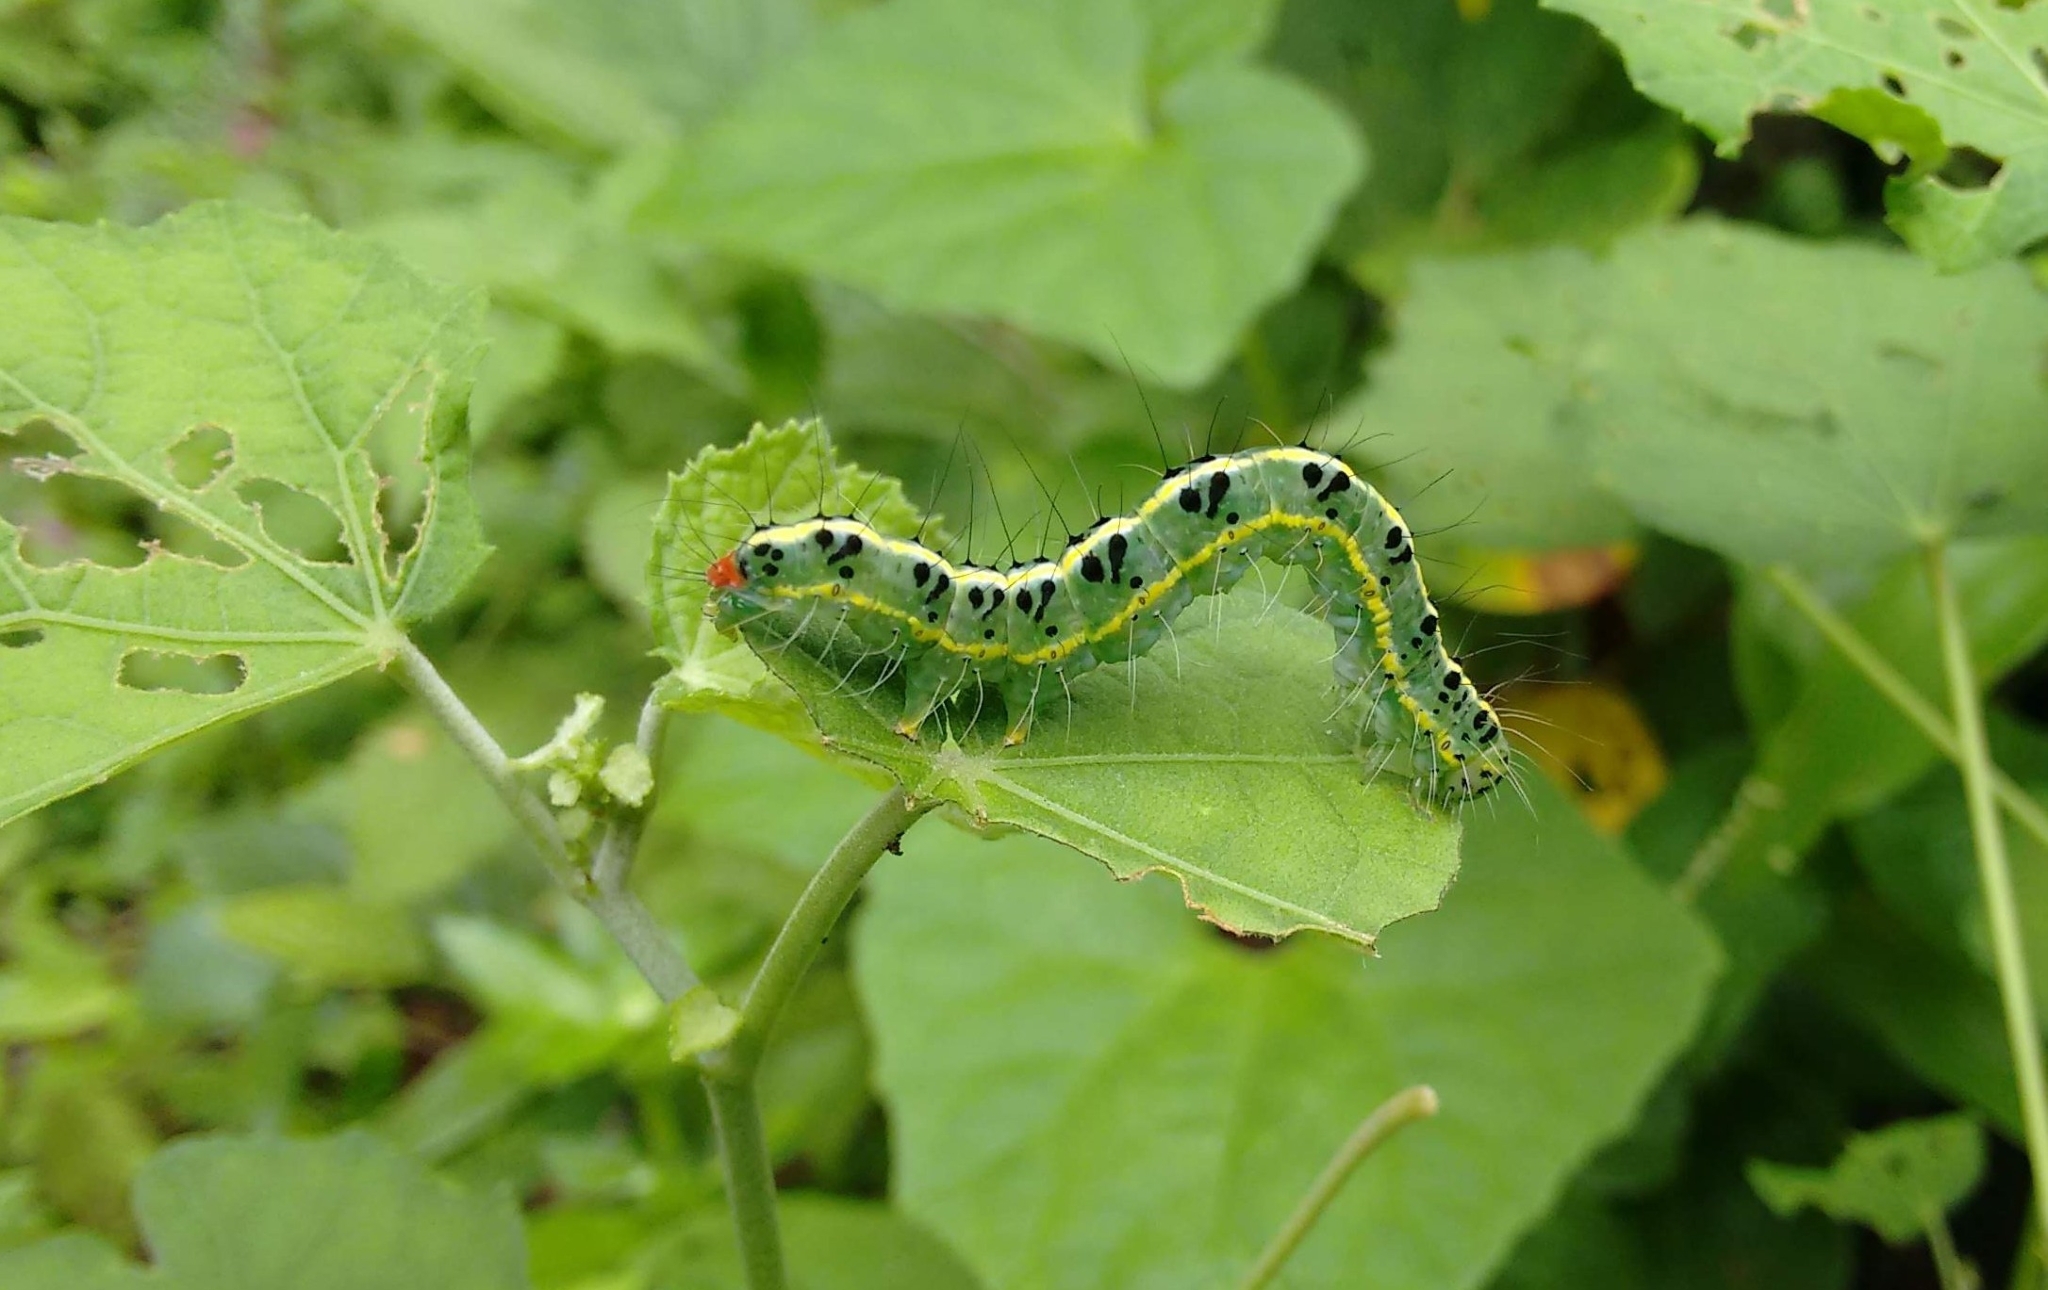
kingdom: Animalia
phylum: Arthropoda
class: Insecta
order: Lepidoptera
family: Nolidae
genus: Xanthodes
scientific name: Xanthodes transversa
